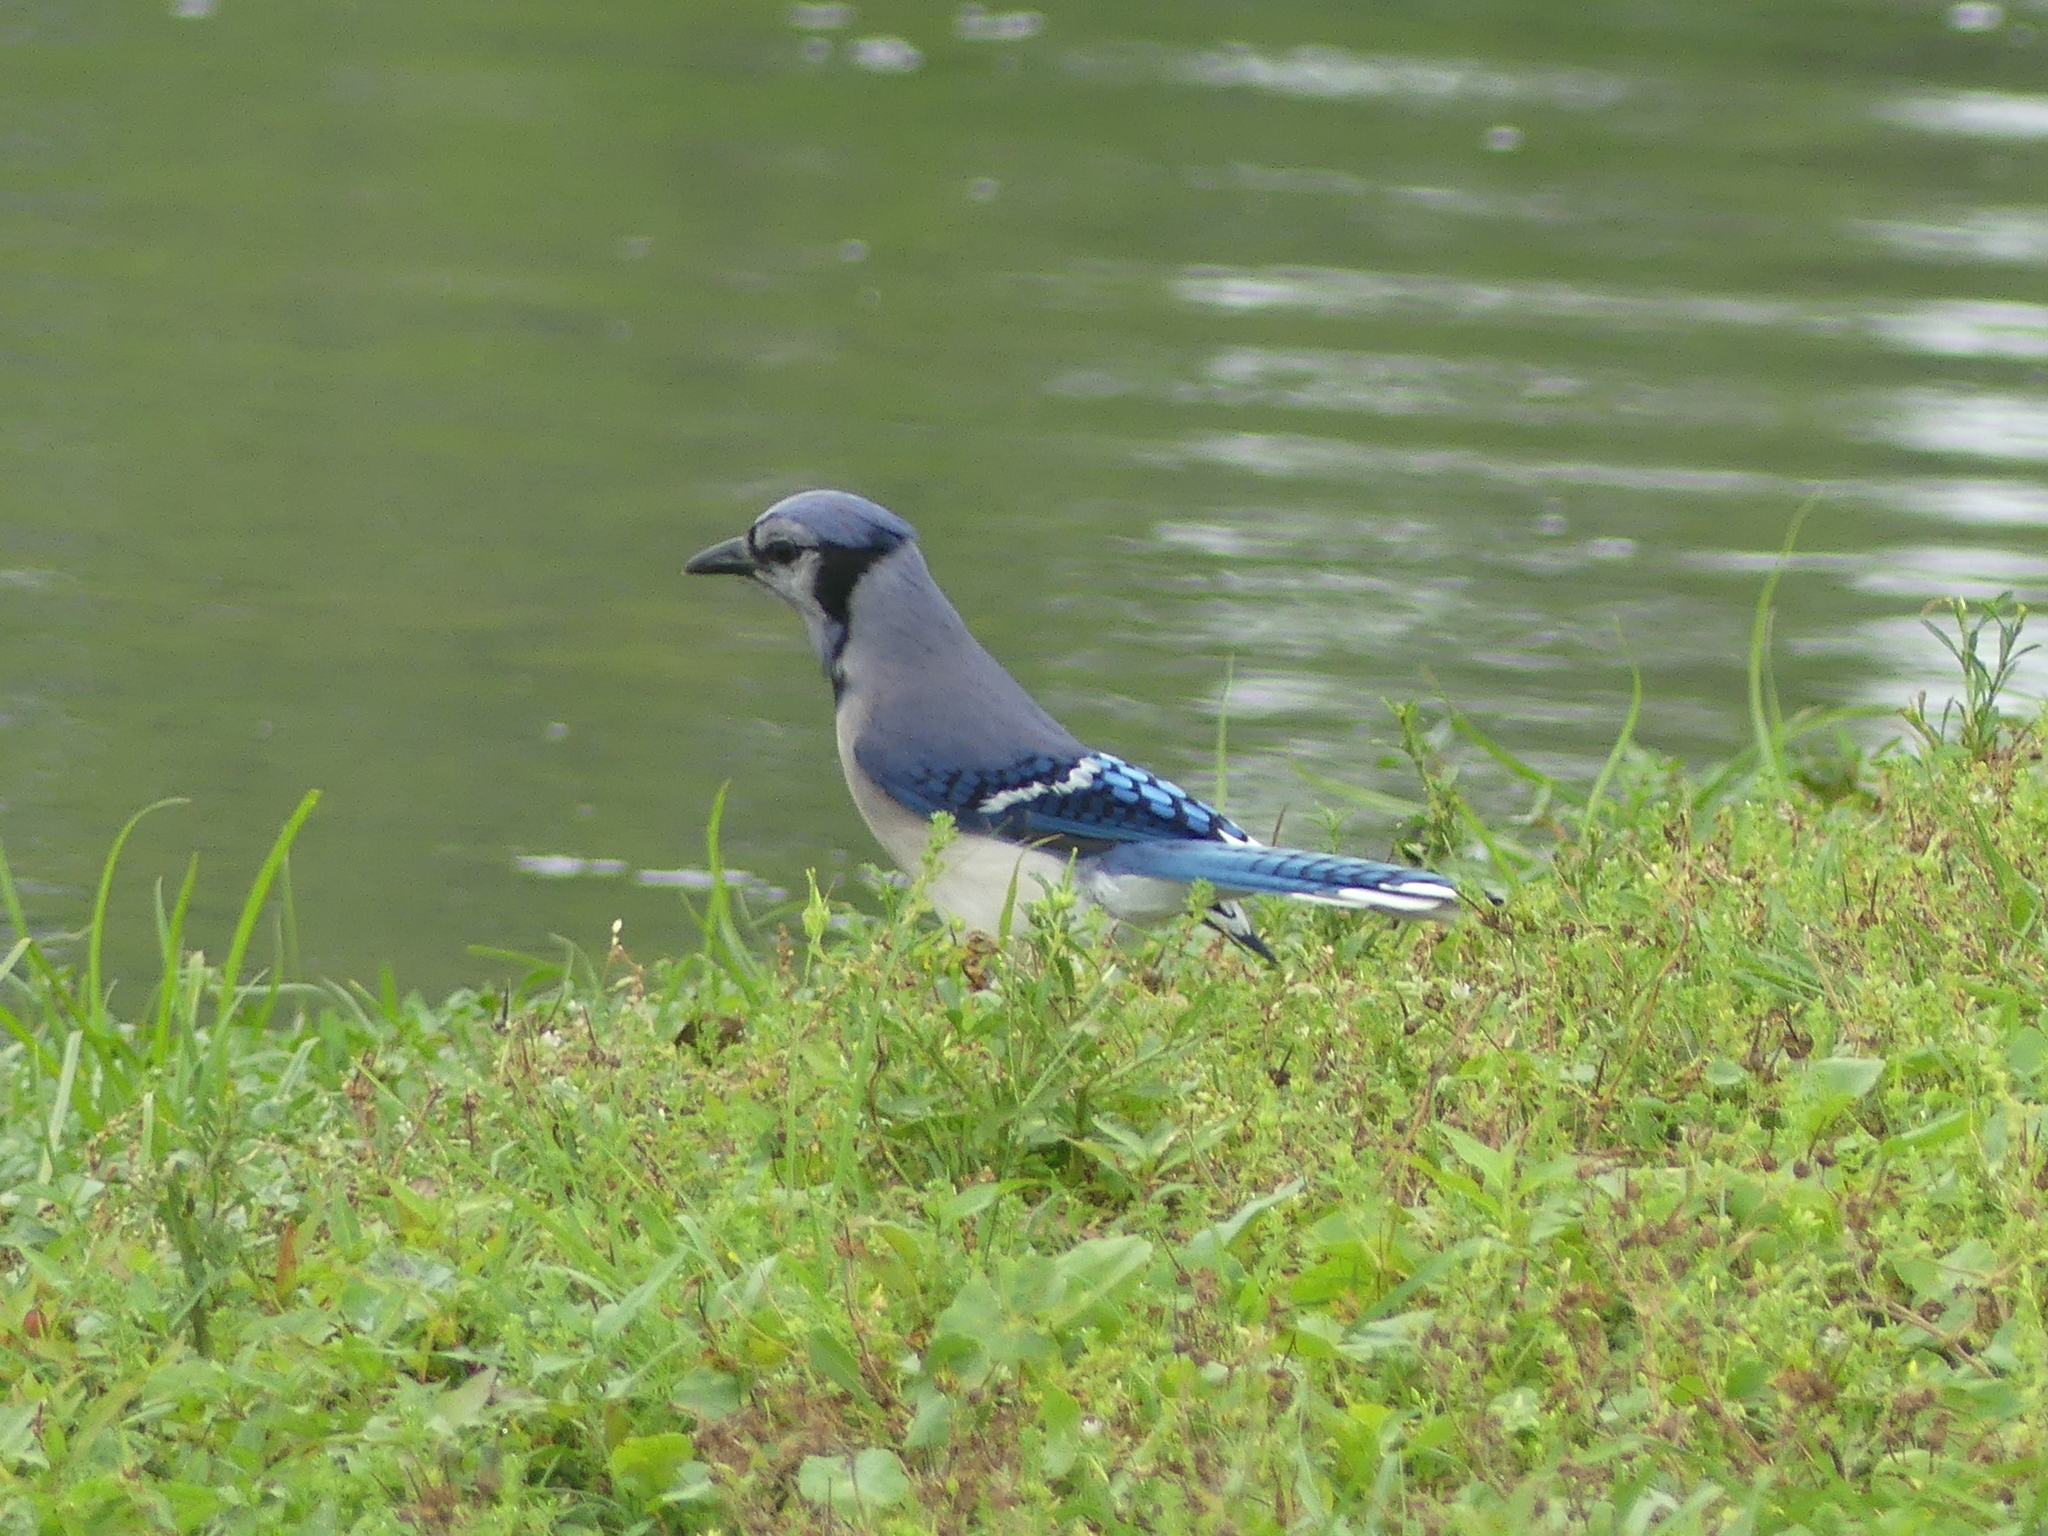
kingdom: Animalia
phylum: Chordata
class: Aves
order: Passeriformes
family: Corvidae
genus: Cyanocitta
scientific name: Cyanocitta cristata
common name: Blue jay
